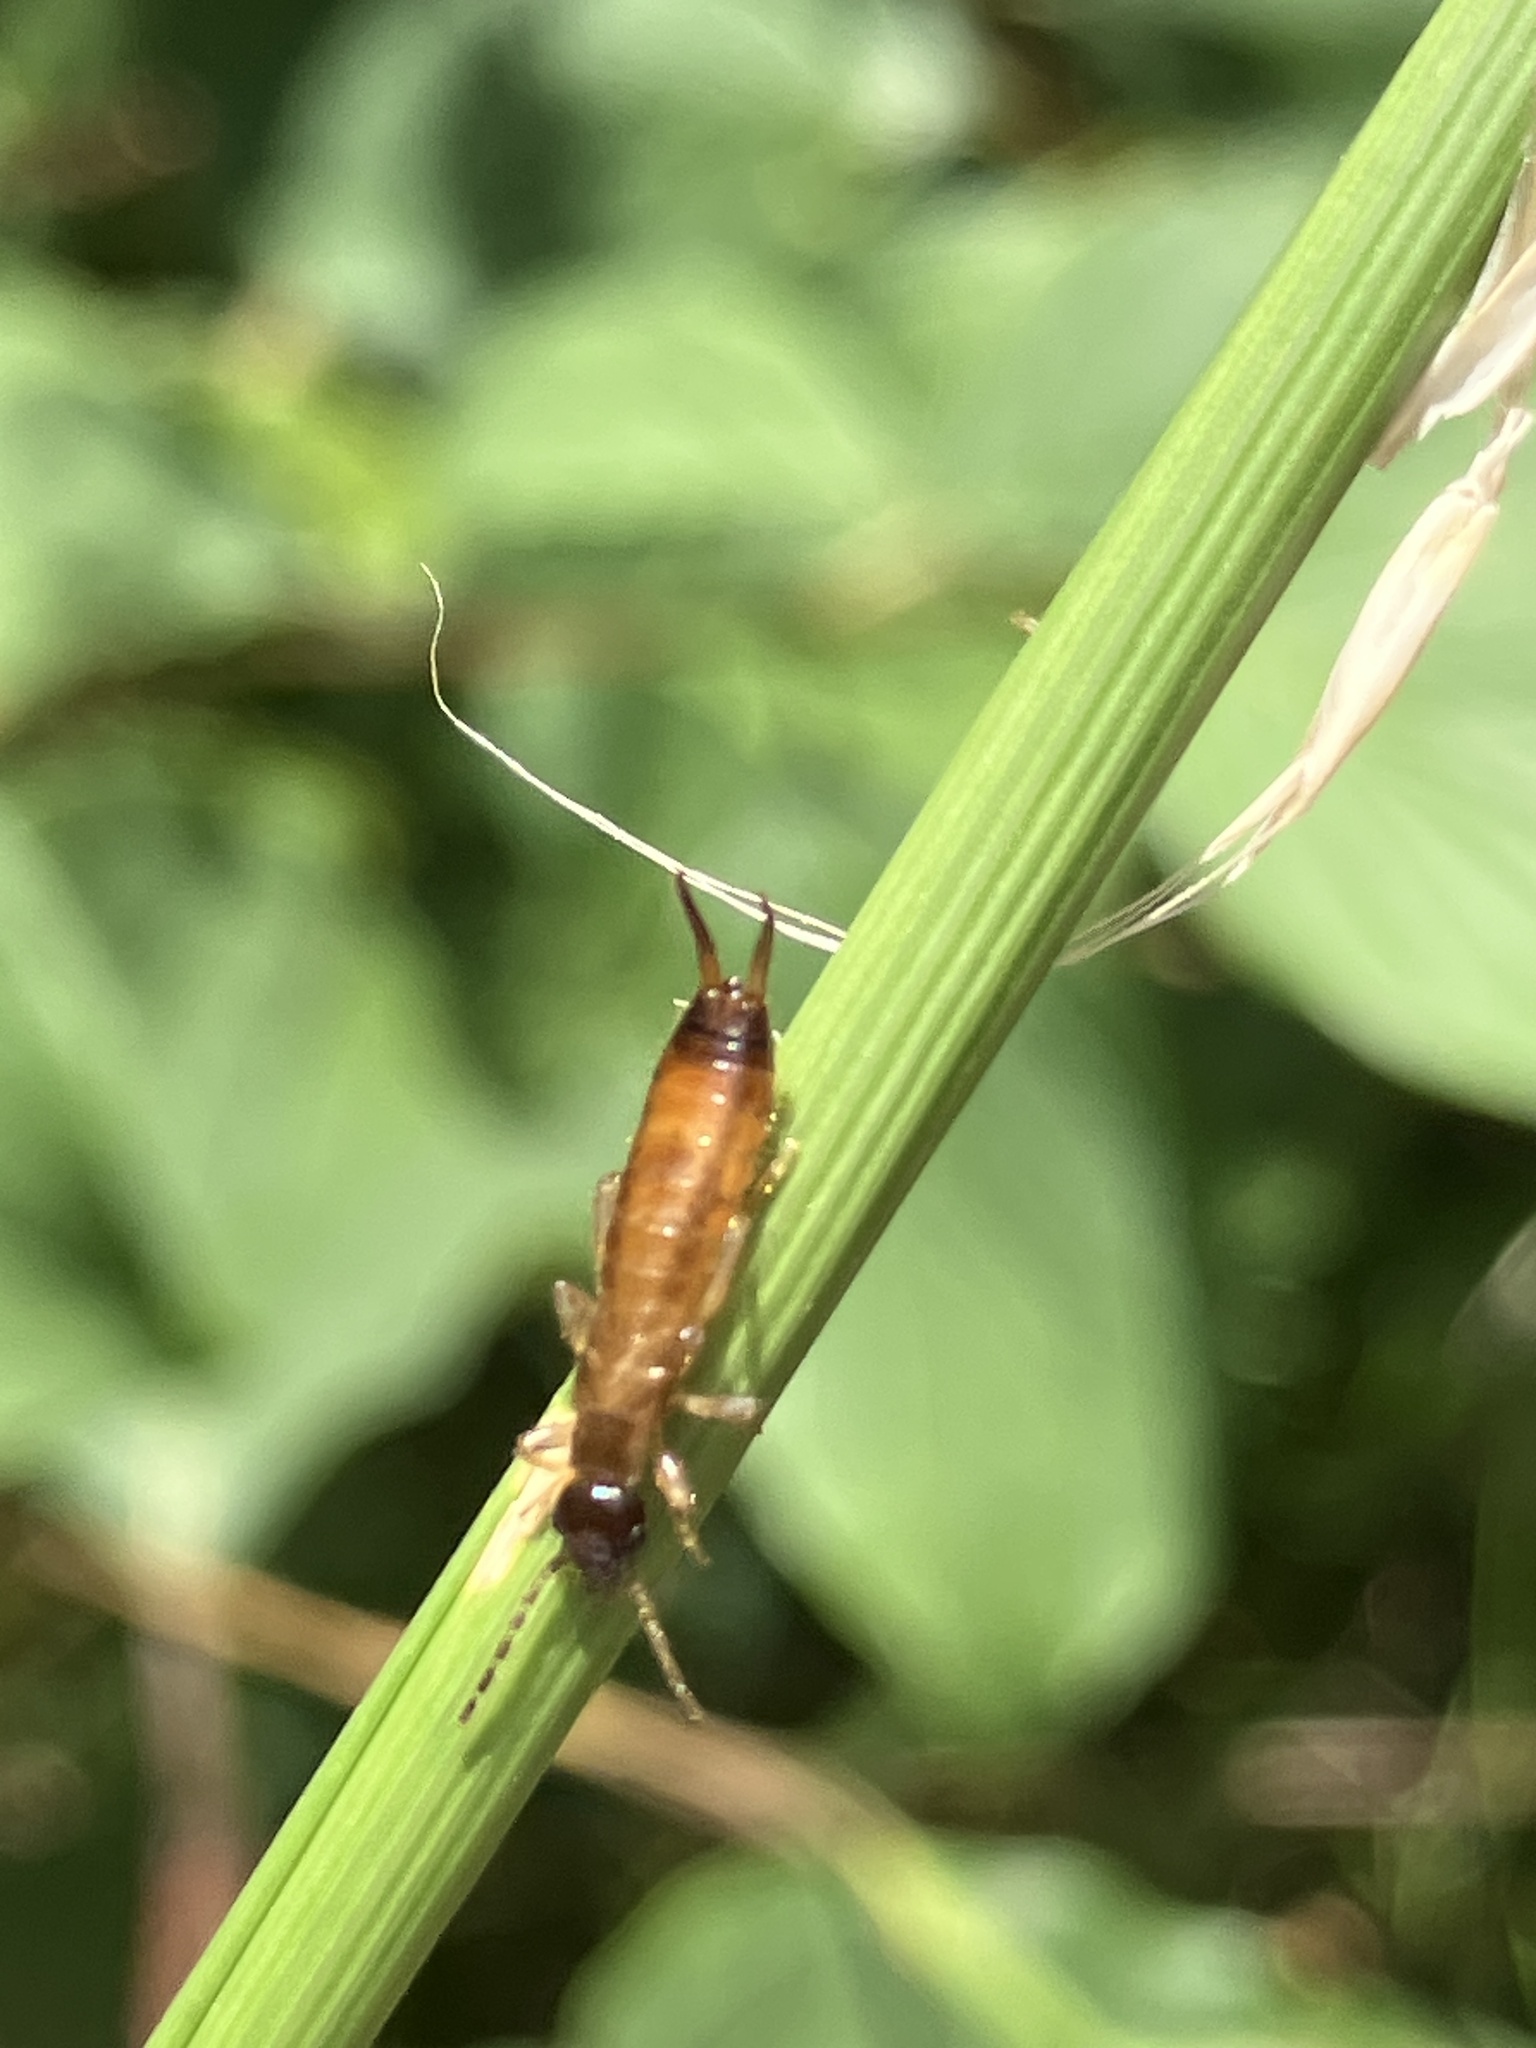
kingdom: Animalia
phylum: Arthropoda
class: Insecta
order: Dermaptera
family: Forficulidae
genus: Apterygida
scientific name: Apterygida albipennis
